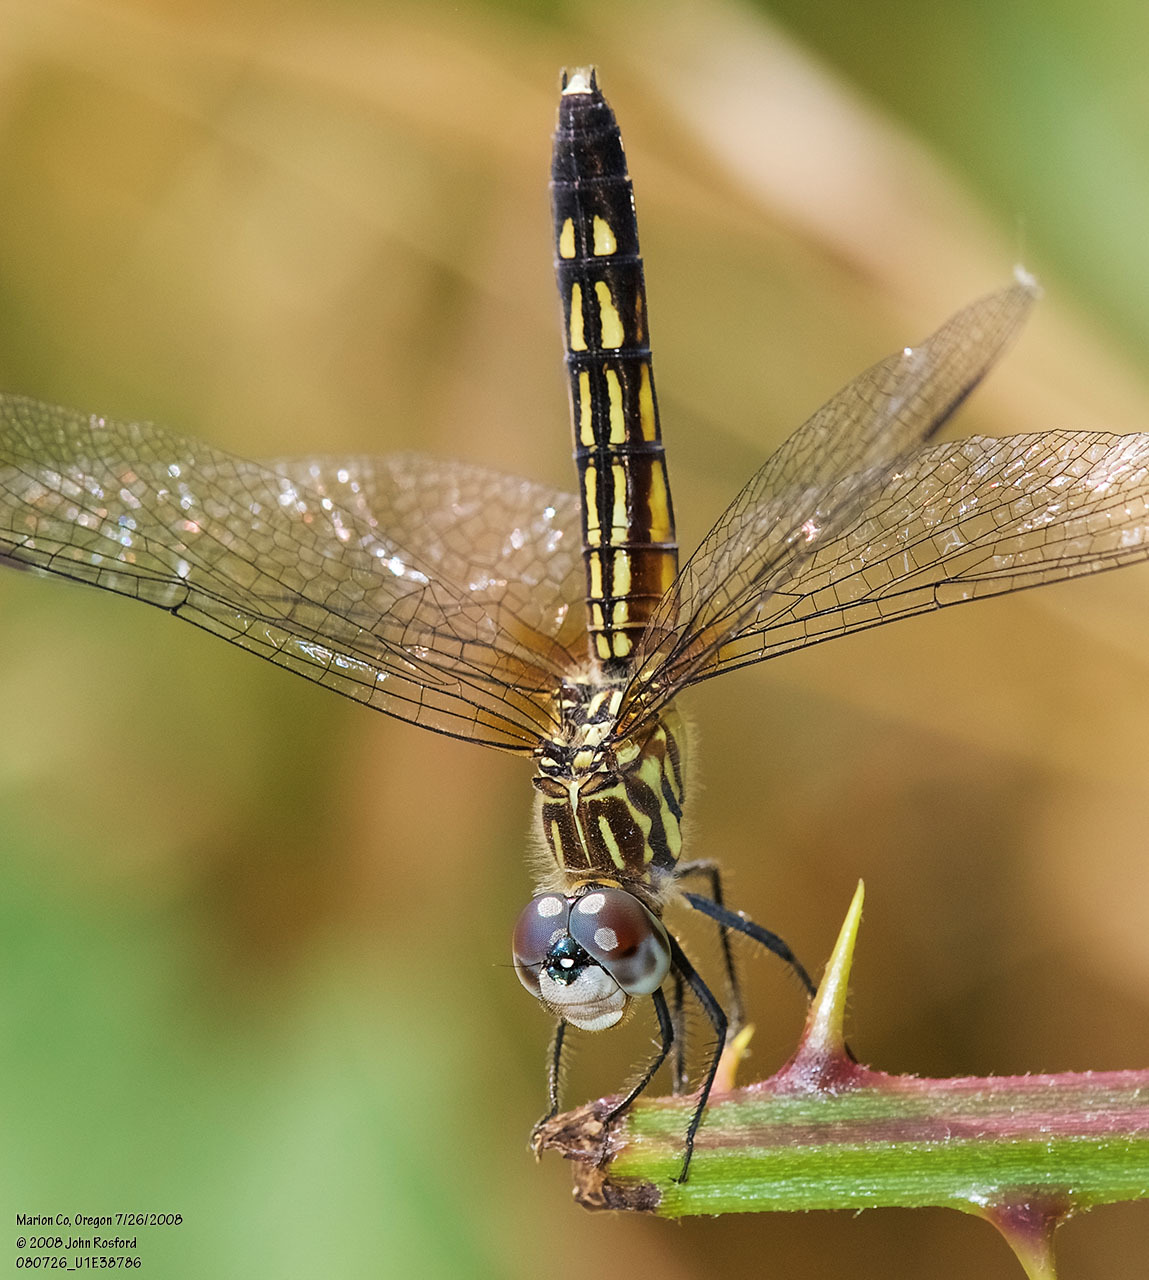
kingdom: Animalia
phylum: Arthropoda
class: Insecta
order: Odonata
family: Libellulidae
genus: Pachydiplax
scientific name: Pachydiplax longipennis
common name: Blue dasher
